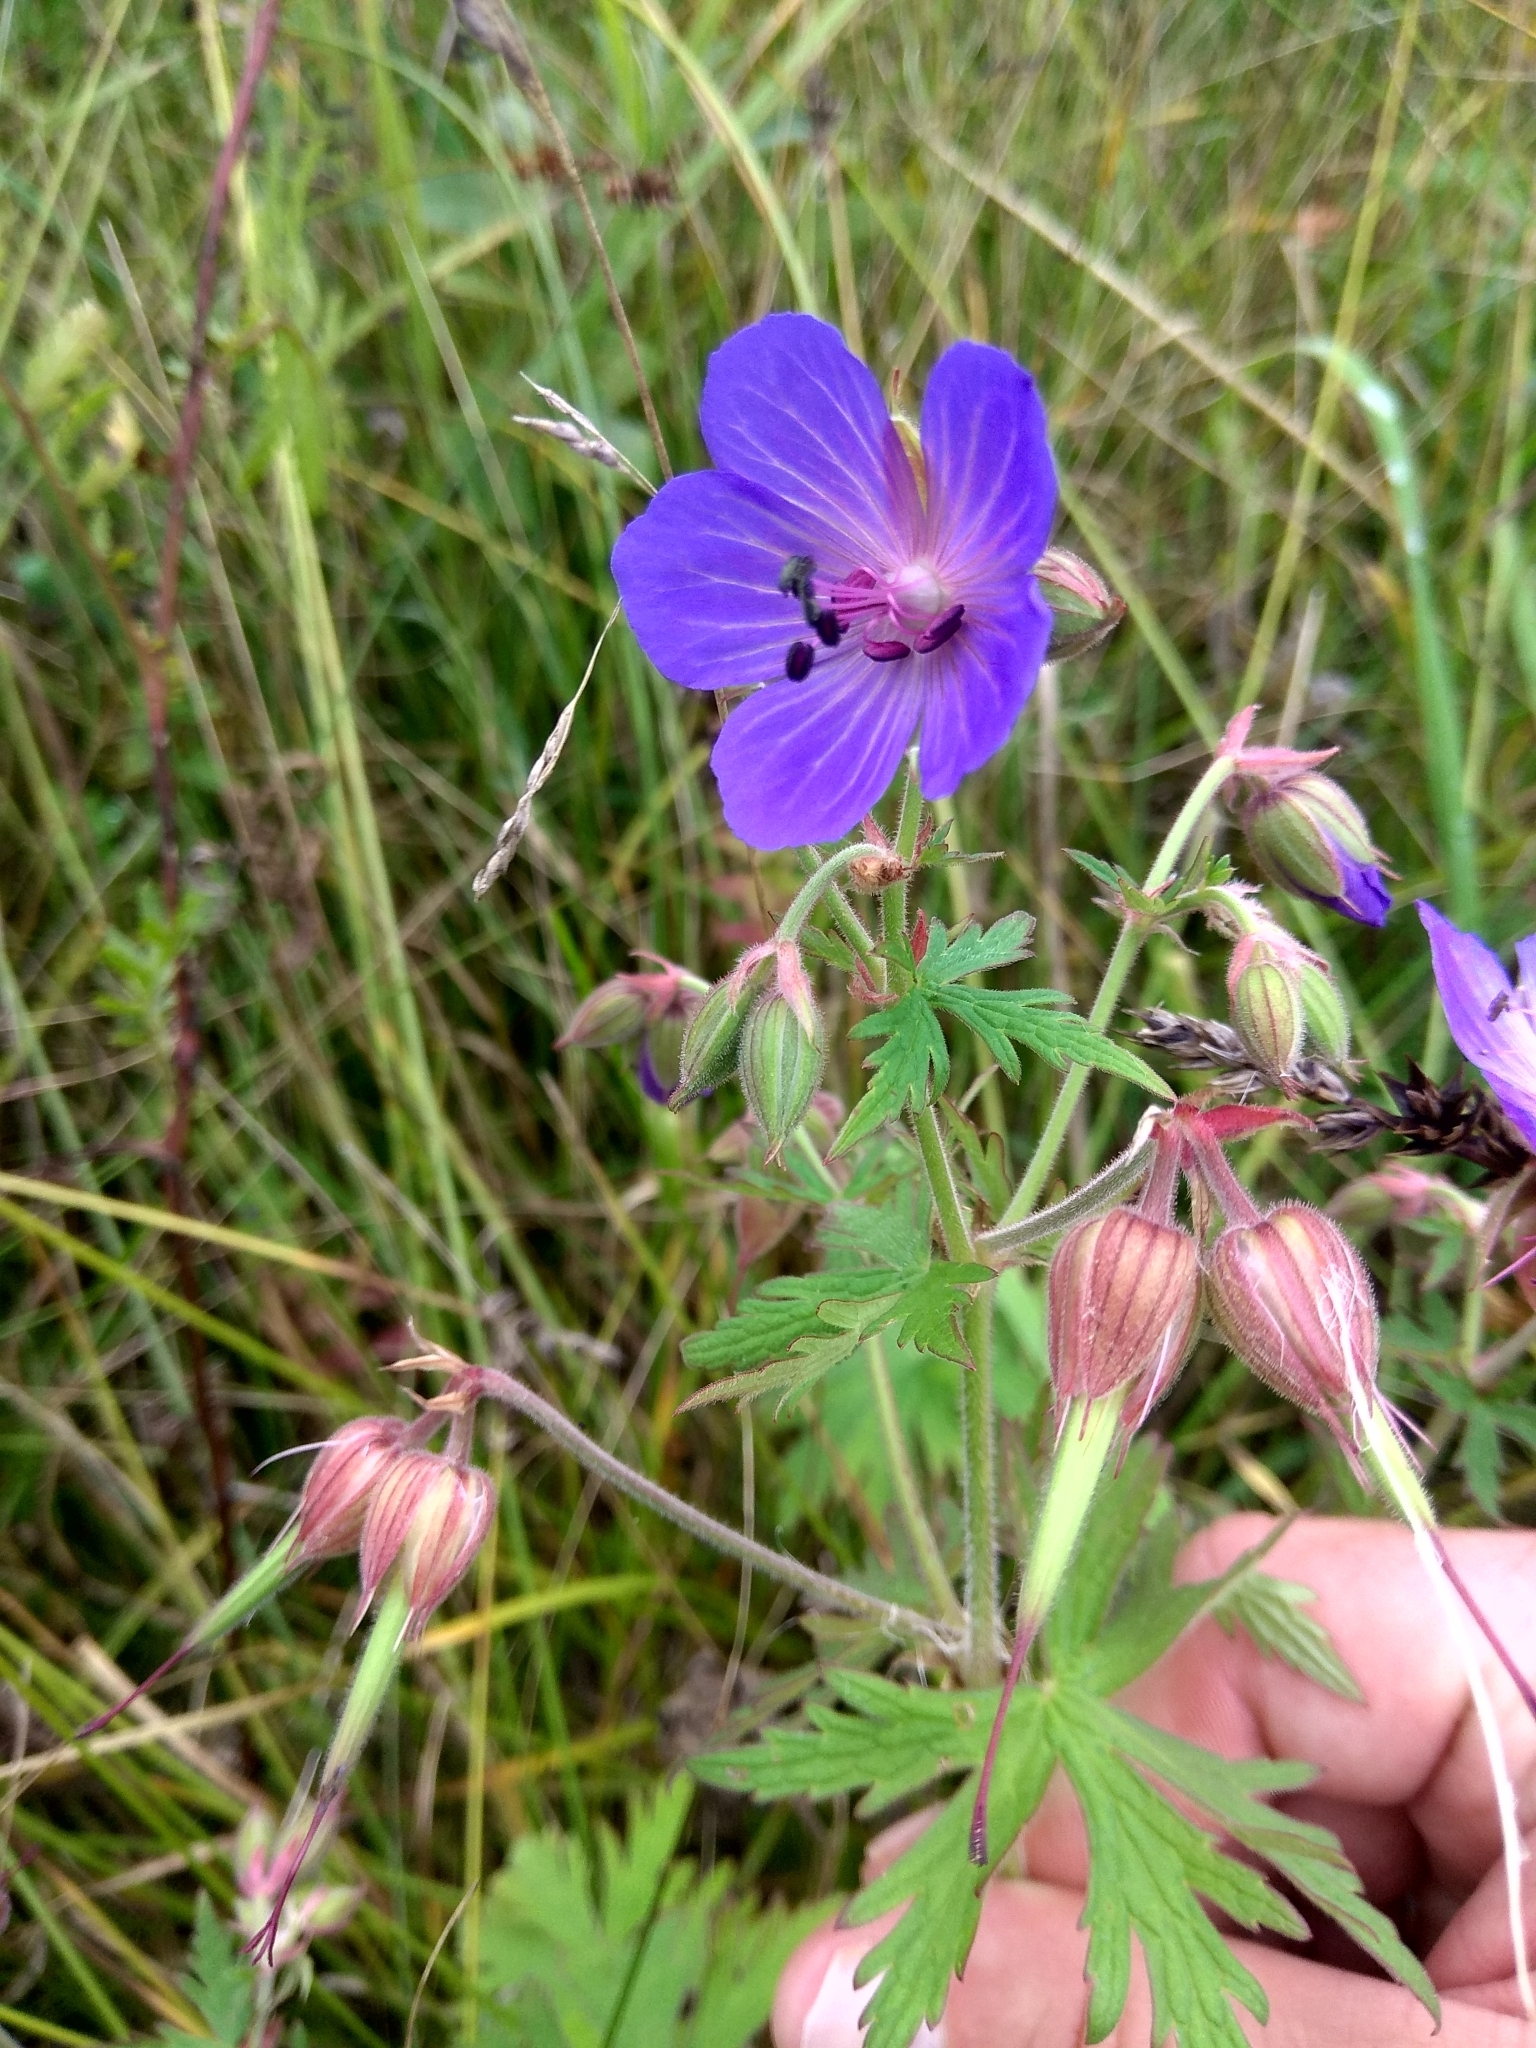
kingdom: Plantae
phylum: Tracheophyta
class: Magnoliopsida
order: Geraniales
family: Geraniaceae
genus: Geranium
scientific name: Geranium pratense
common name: Meadow crane's-bill
